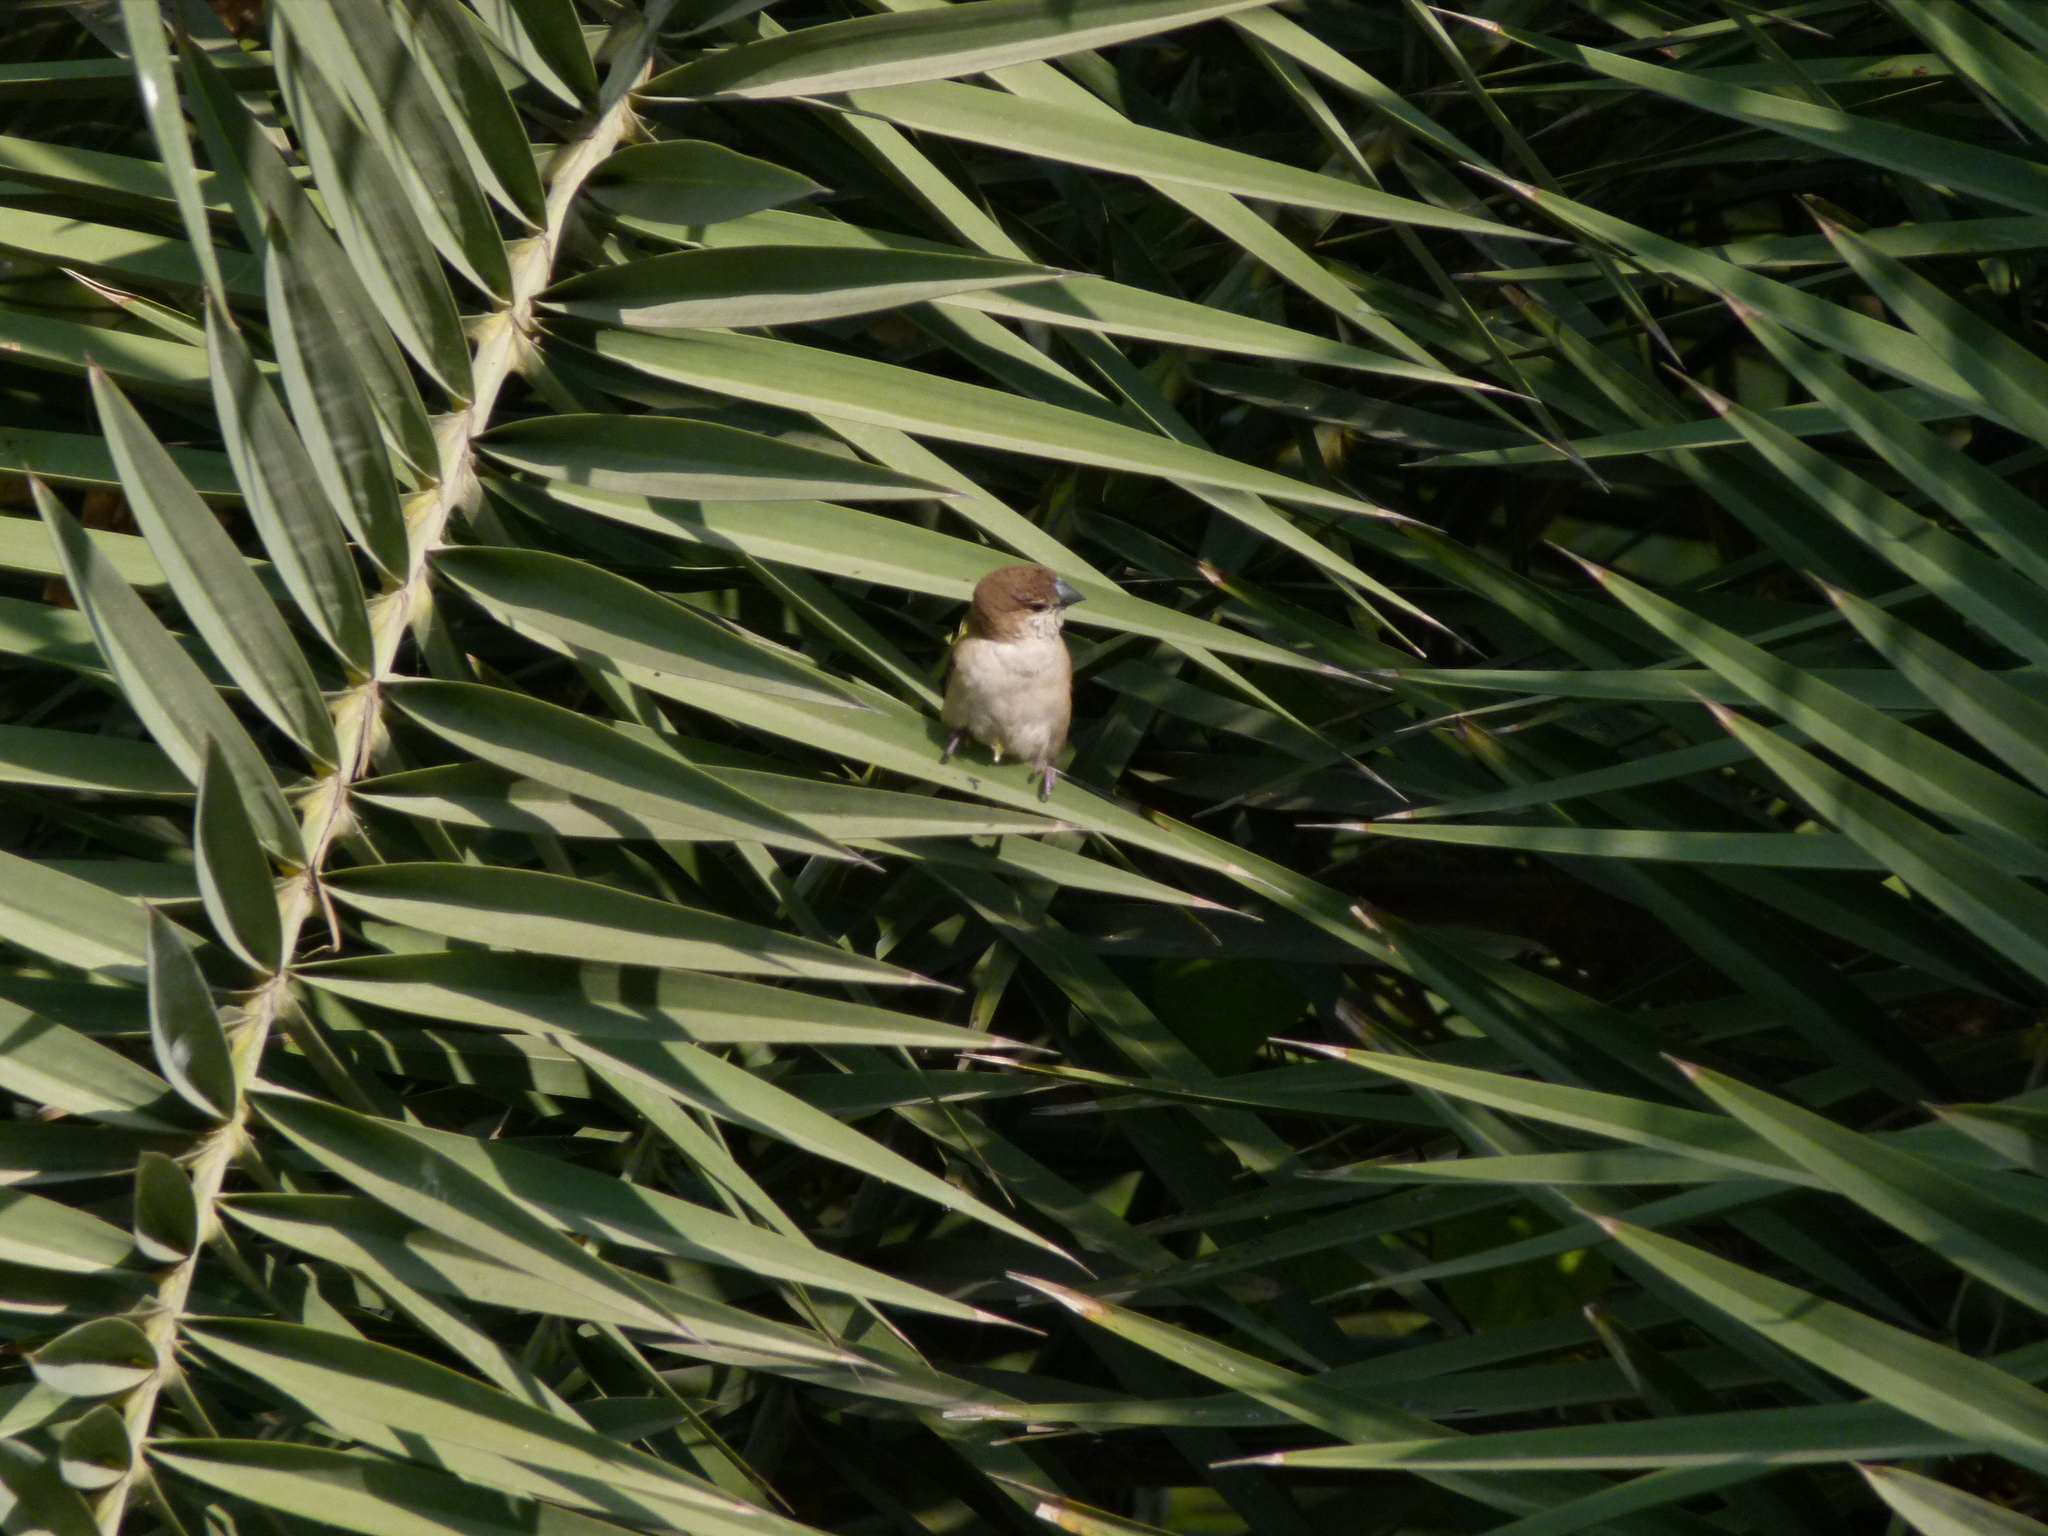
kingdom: Animalia
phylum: Chordata
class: Aves
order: Passeriformes
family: Estrildidae
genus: Euodice
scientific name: Euodice malabarica
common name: Indian silverbill
